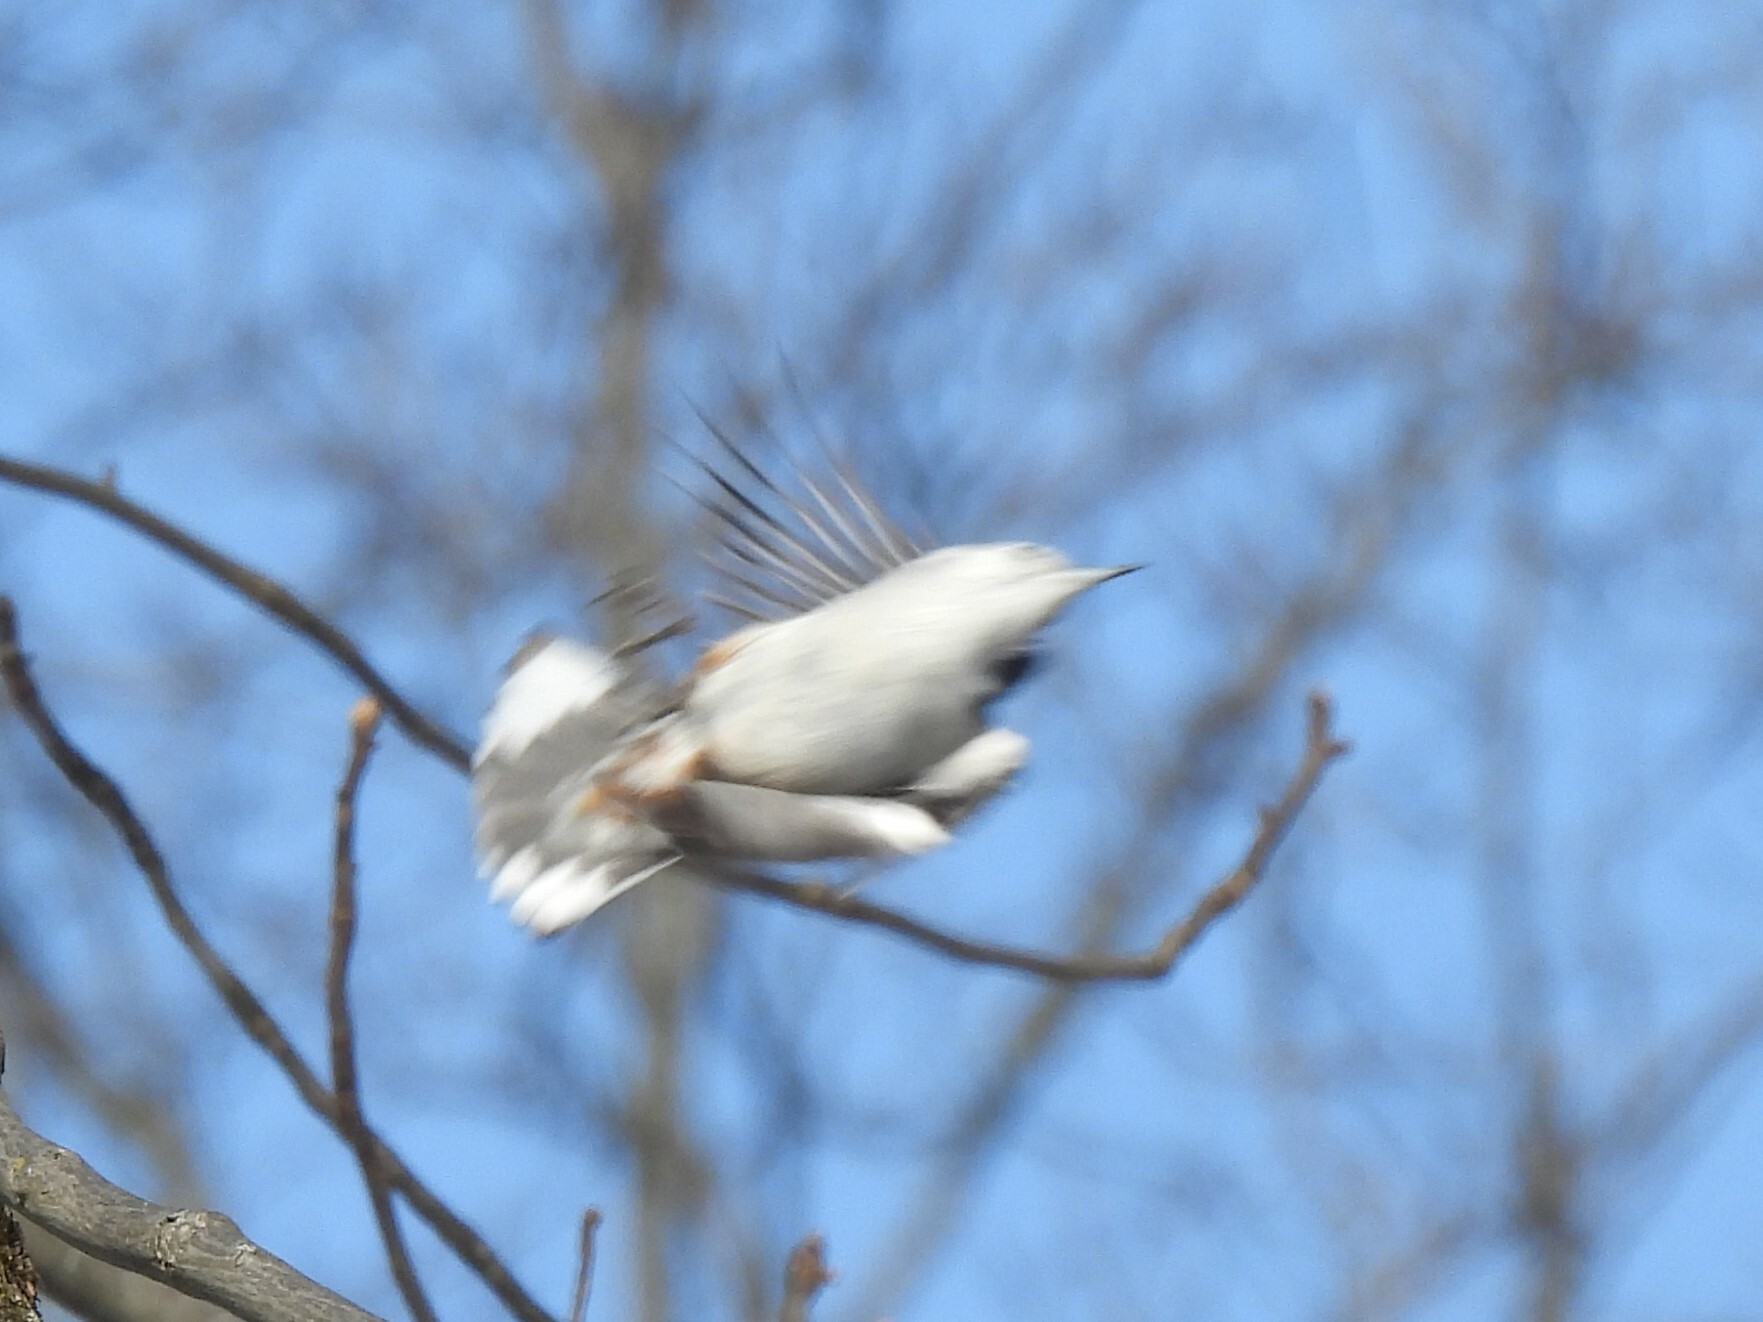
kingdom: Animalia
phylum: Chordata
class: Aves
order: Passeriformes
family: Sittidae
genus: Sitta
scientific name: Sitta carolinensis
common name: White-breasted nuthatch
